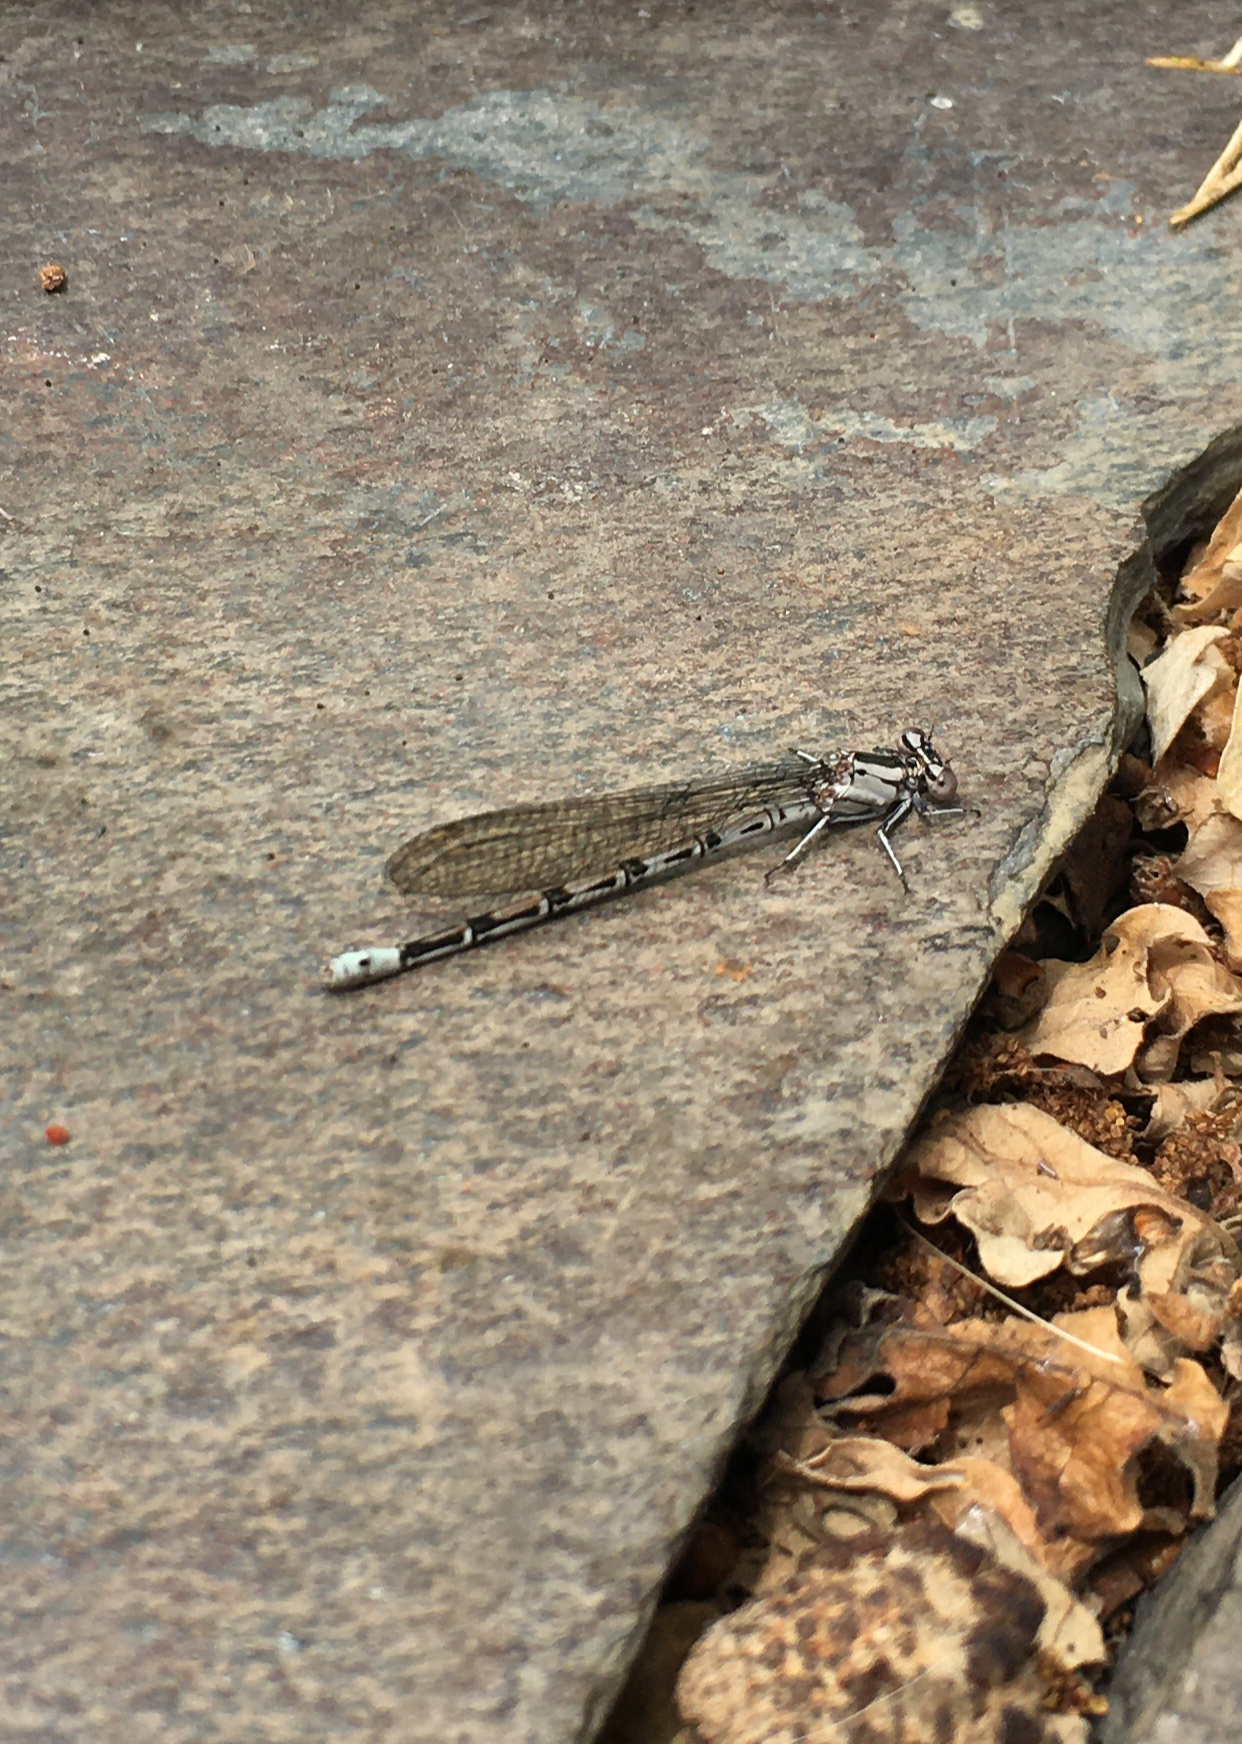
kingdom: Animalia
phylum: Arthropoda
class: Insecta
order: Odonata
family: Coenagrionidae
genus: Argia
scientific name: Argia vivida
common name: Vivid dancer
